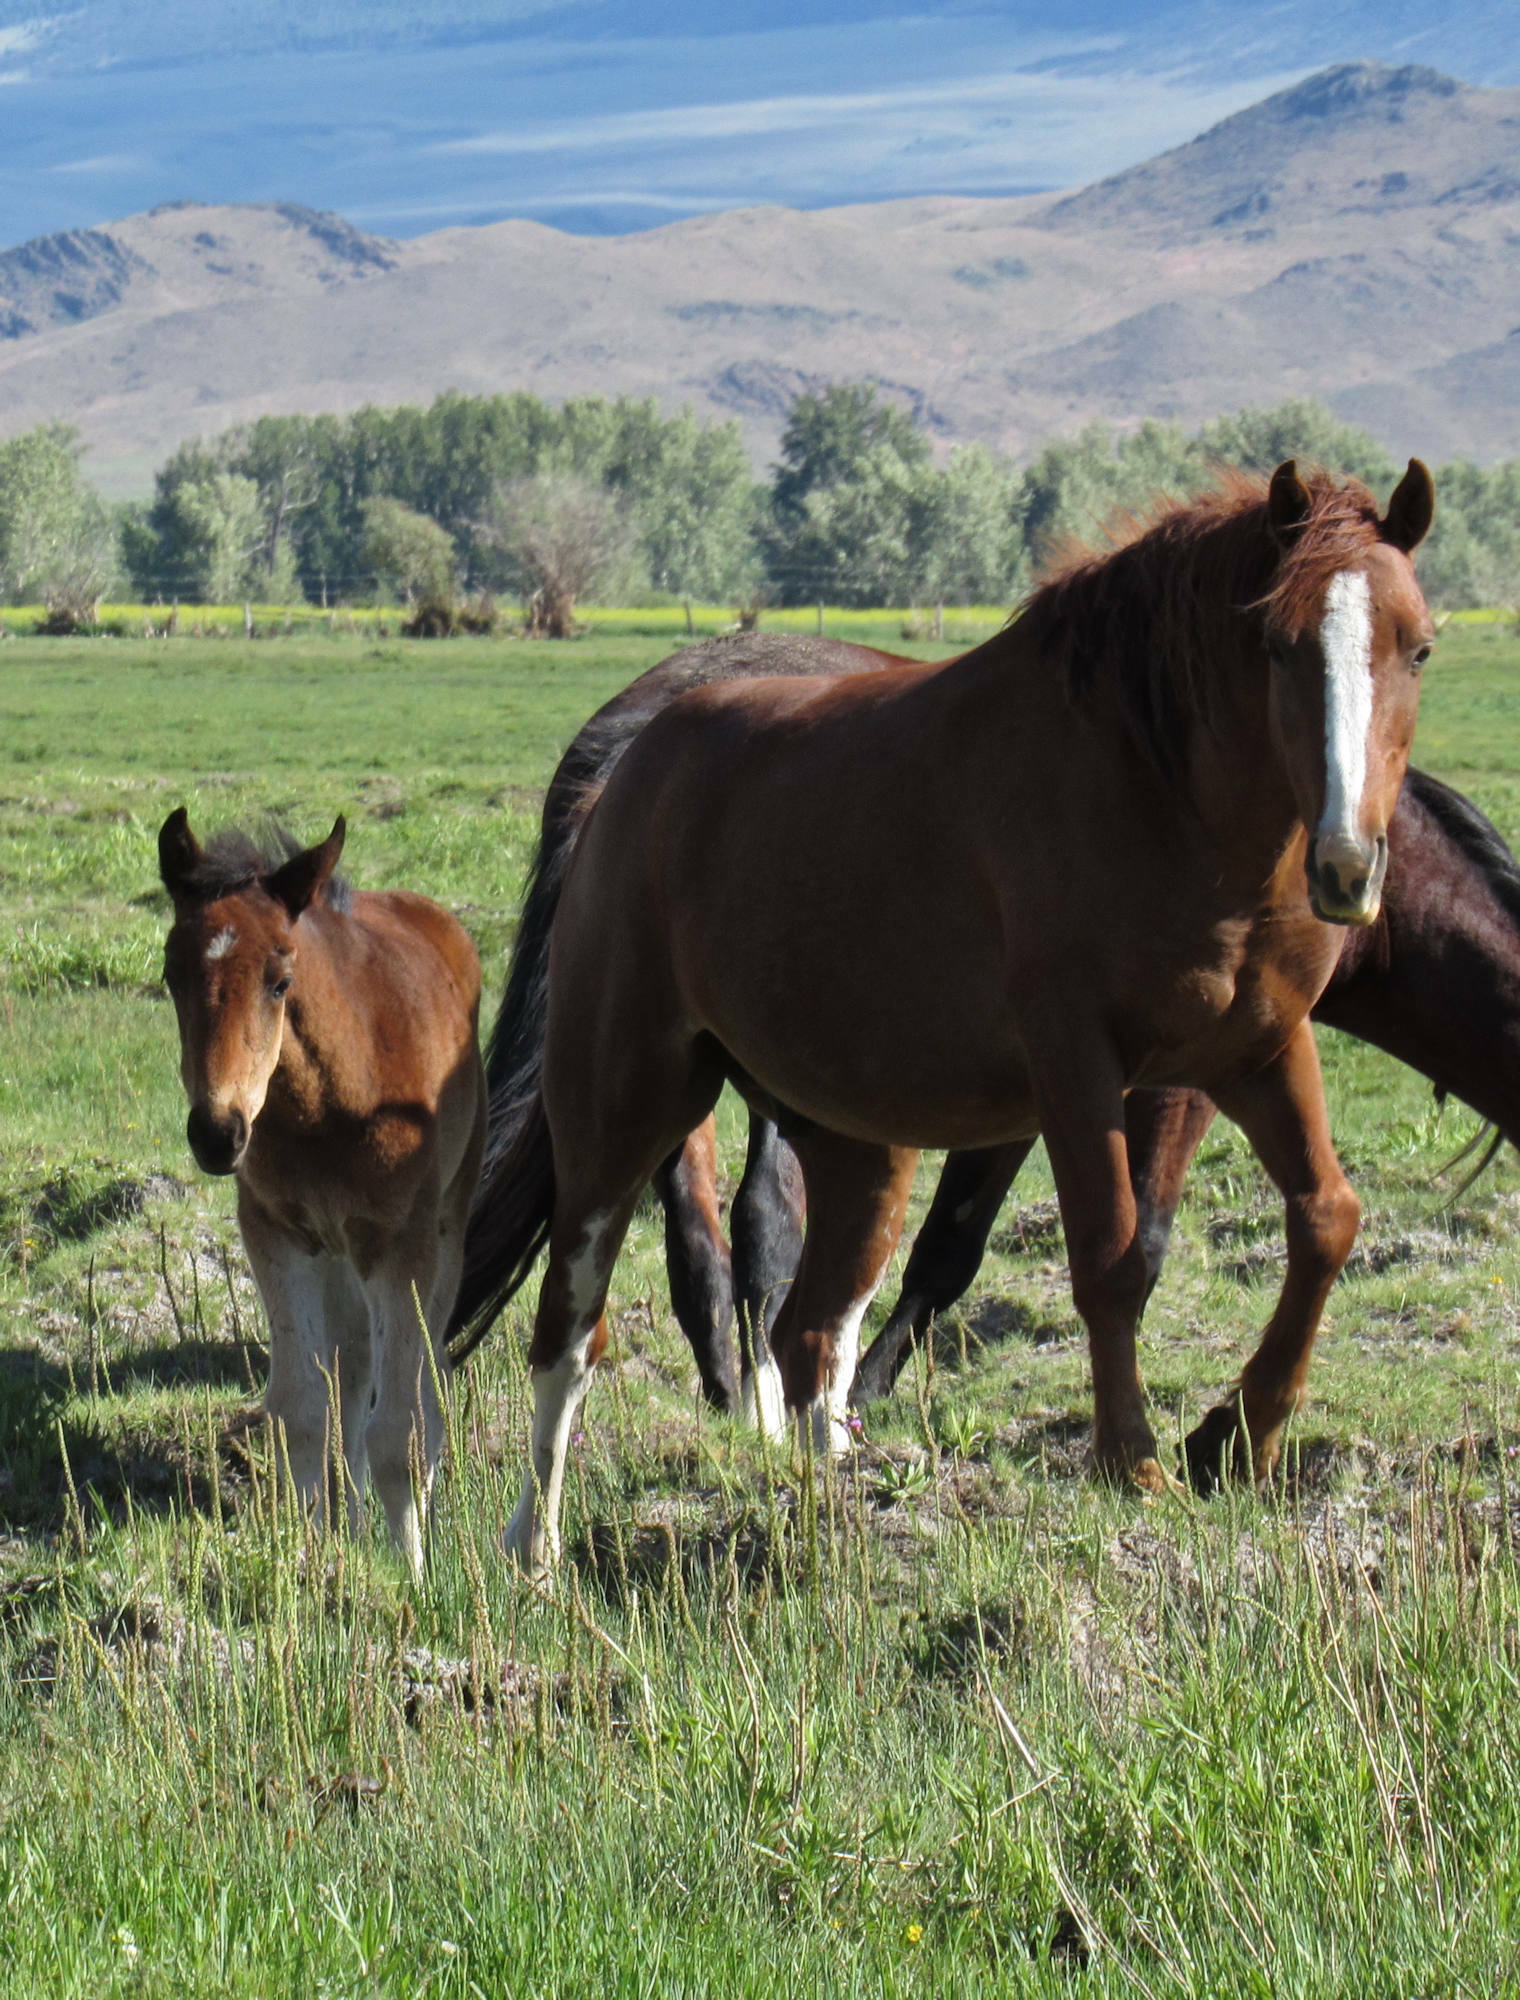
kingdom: Animalia
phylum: Chordata
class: Mammalia
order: Perissodactyla
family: Equidae
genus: Equus
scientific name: Equus caballus
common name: Horse
